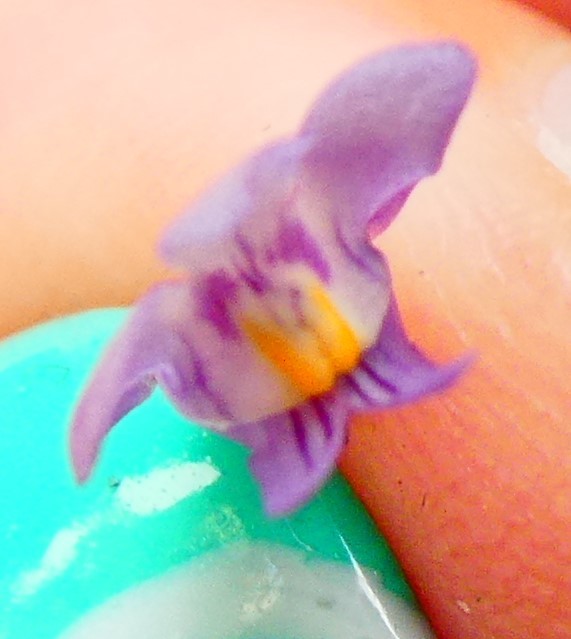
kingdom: Plantae
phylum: Tracheophyta
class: Magnoliopsida
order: Lamiales
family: Plantaginaceae
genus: Cymbalaria
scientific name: Cymbalaria muralis
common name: Ivy-leaved toadflax
